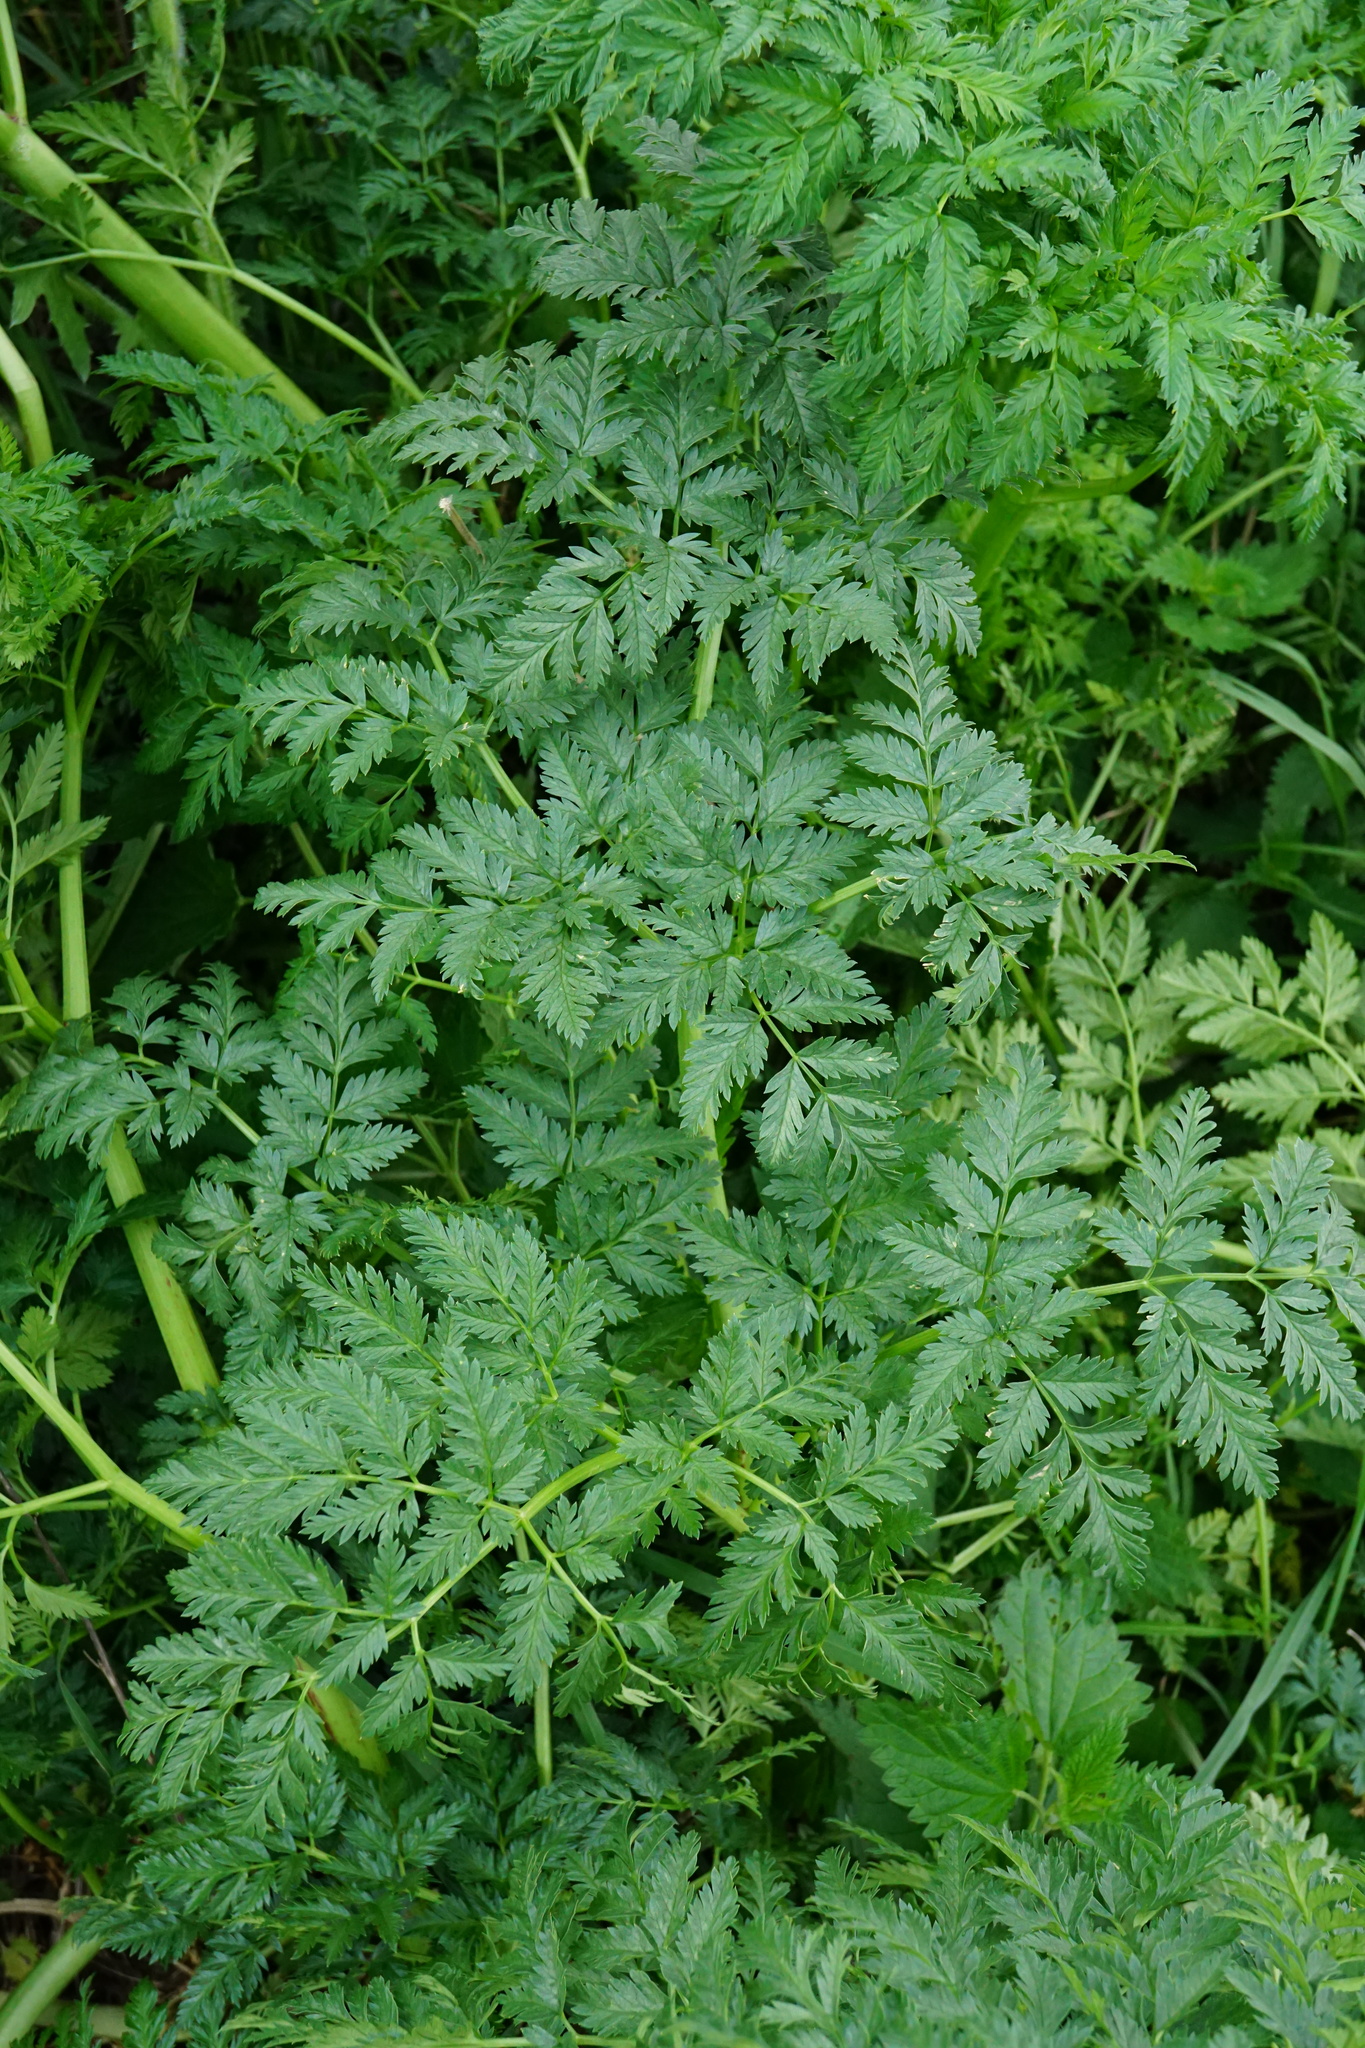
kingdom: Plantae
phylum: Tracheophyta
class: Magnoliopsida
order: Apiales
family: Apiaceae
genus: Conium
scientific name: Conium maculatum
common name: Hemlock
